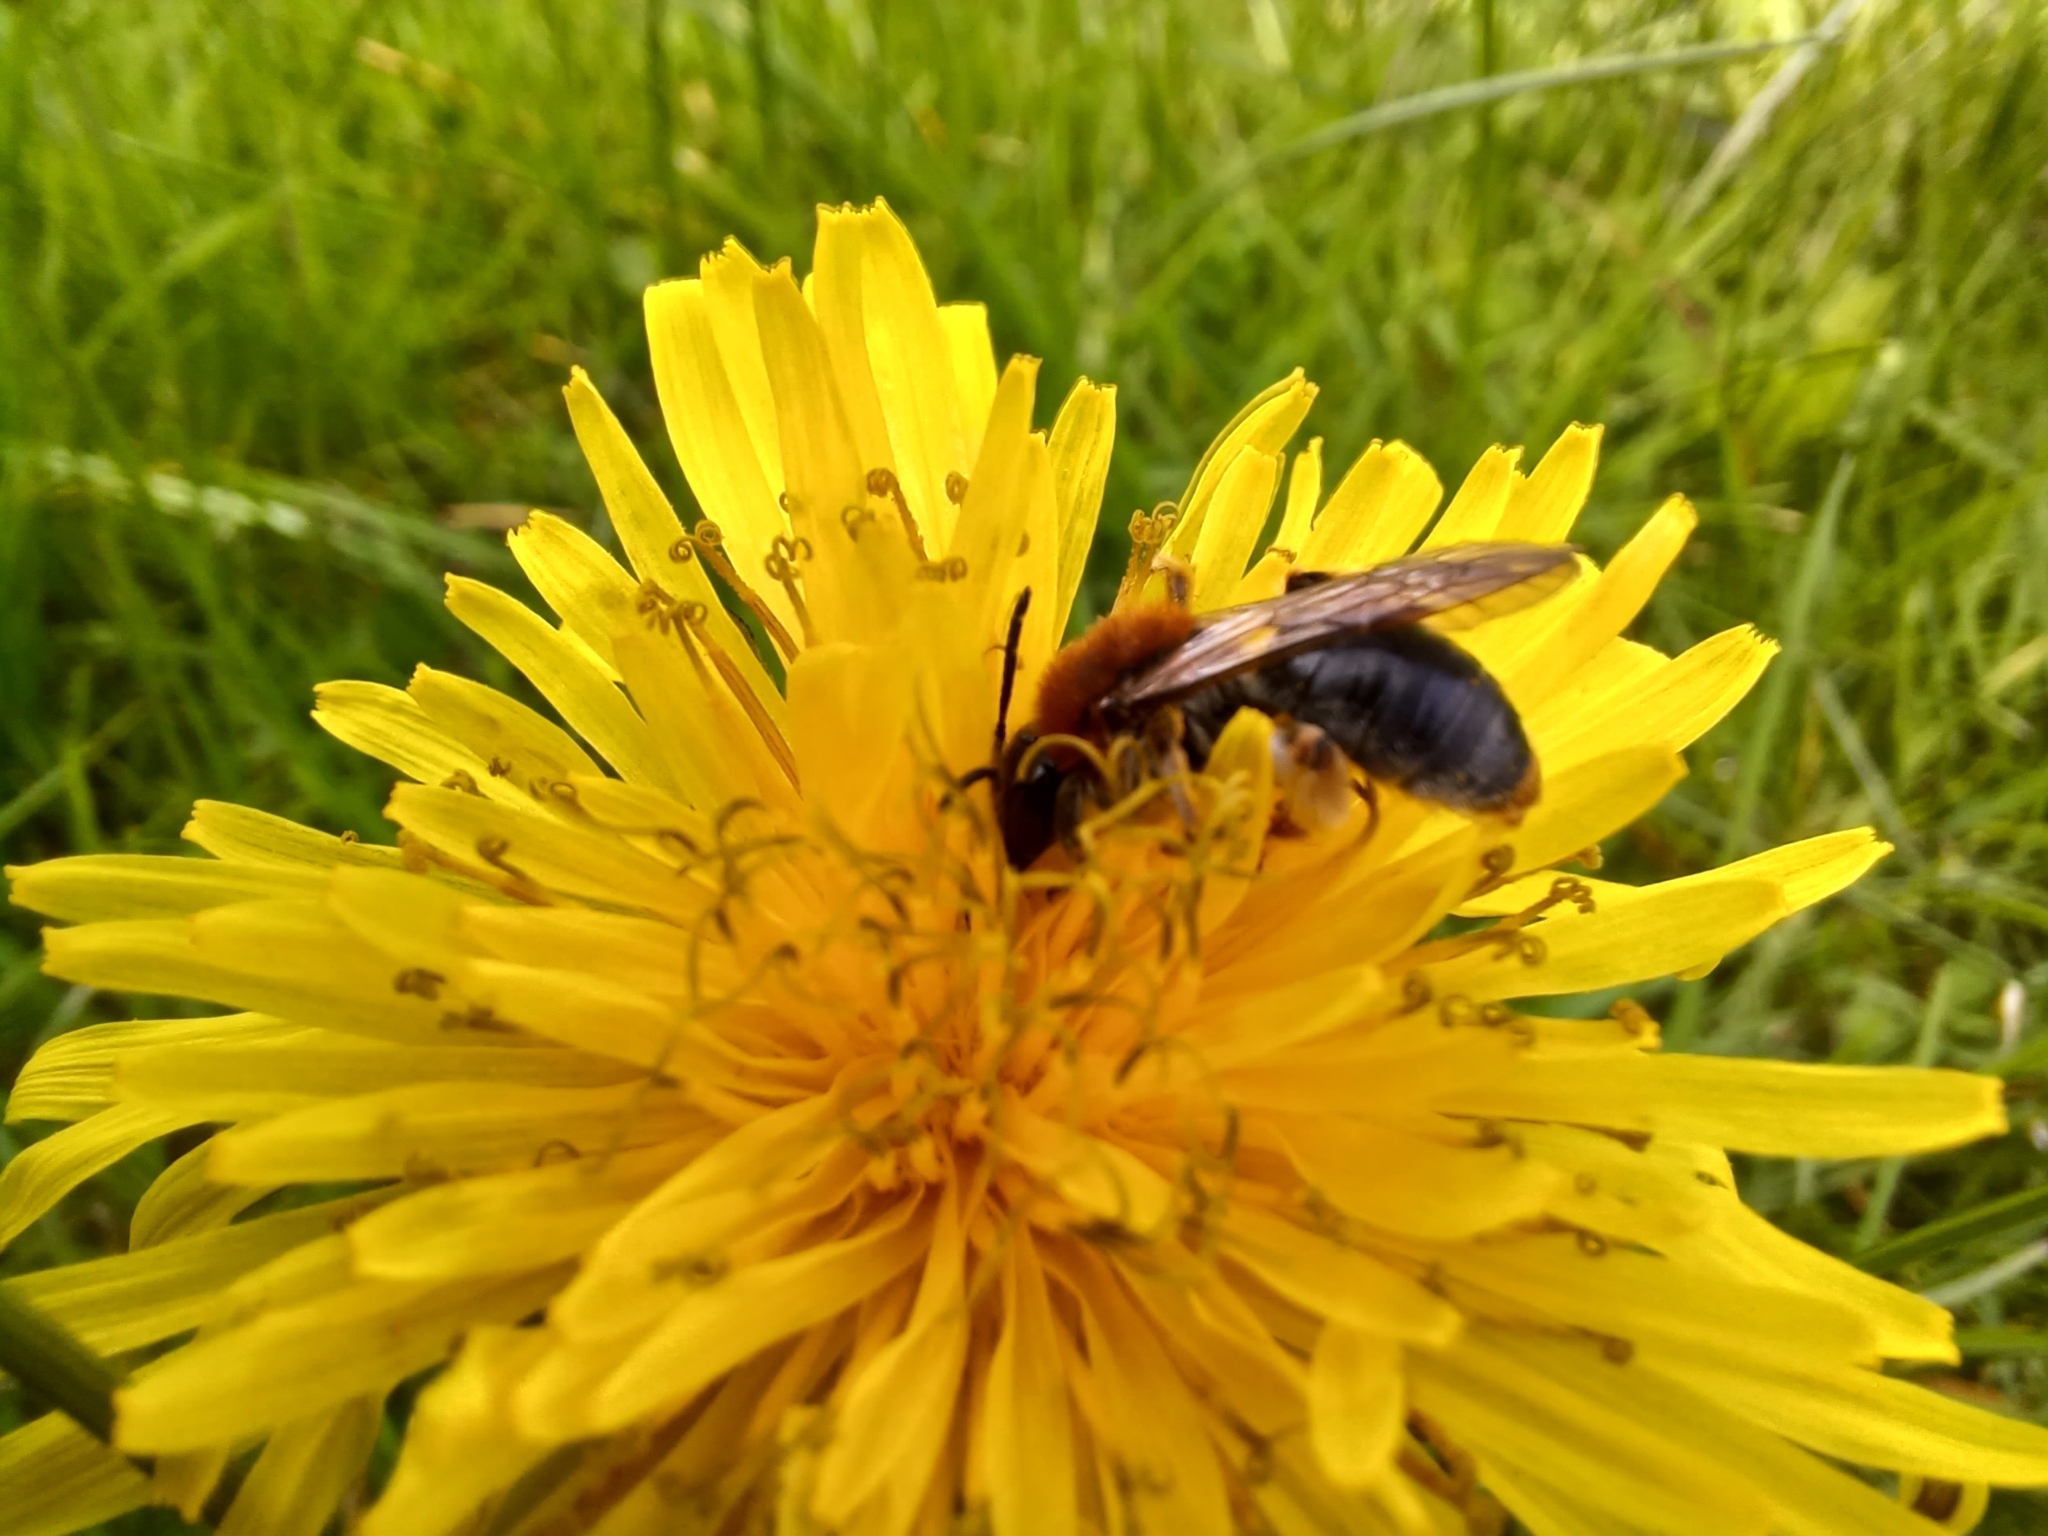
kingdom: Animalia
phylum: Arthropoda
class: Insecta
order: Hymenoptera
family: Andrenidae
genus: Andrena
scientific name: Andrena haemorrhoa
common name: Early mining bee
